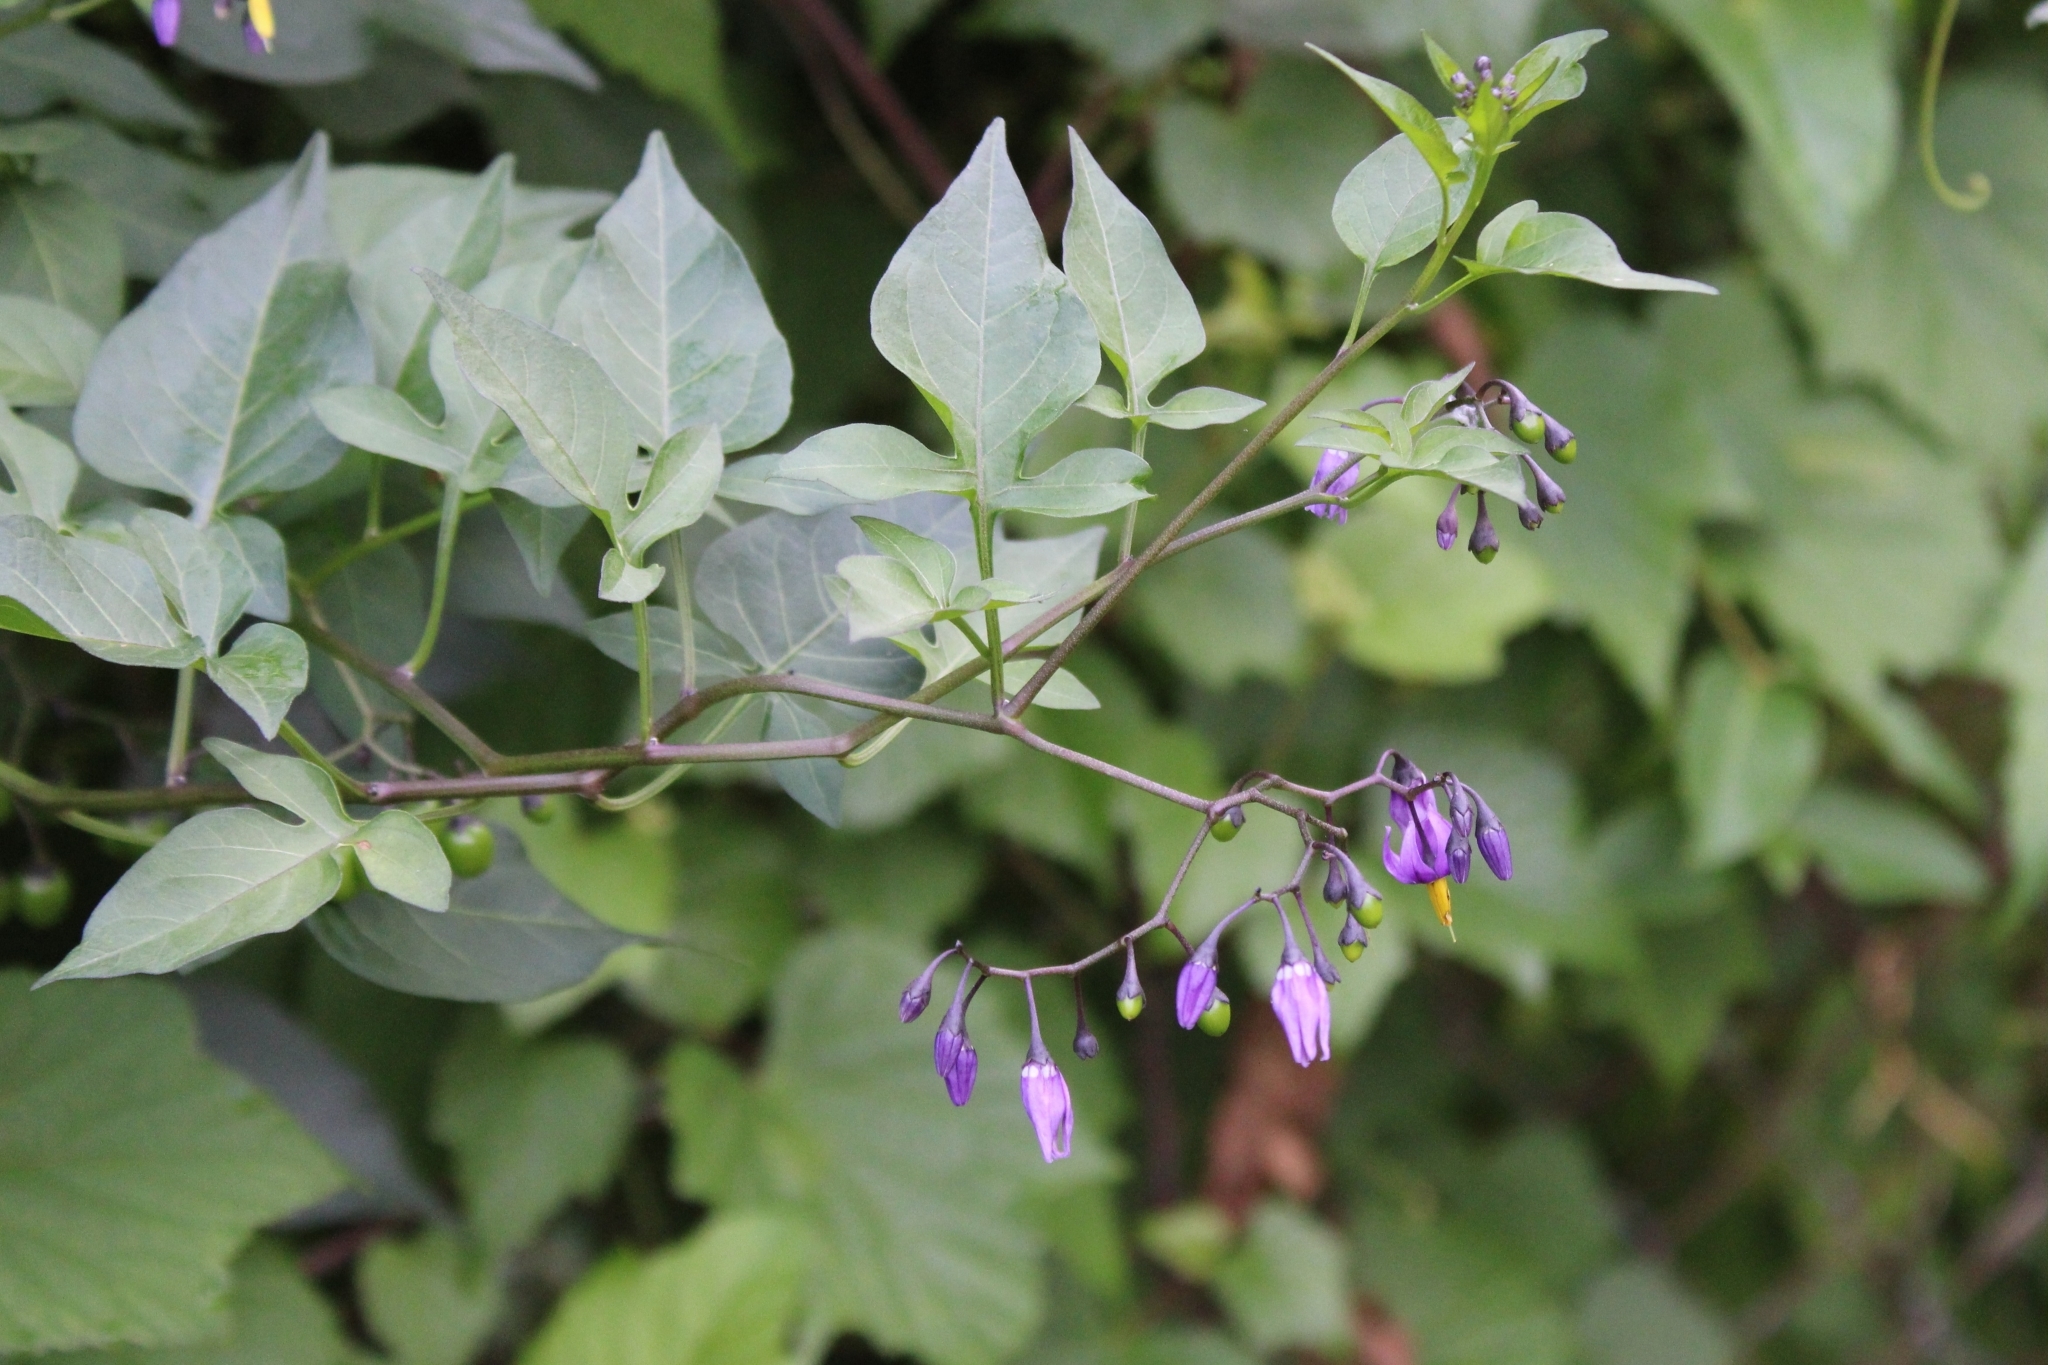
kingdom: Plantae
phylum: Tracheophyta
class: Magnoliopsida
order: Solanales
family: Solanaceae
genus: Solanum
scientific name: Solanum dulcamara
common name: Climbing nightshade
